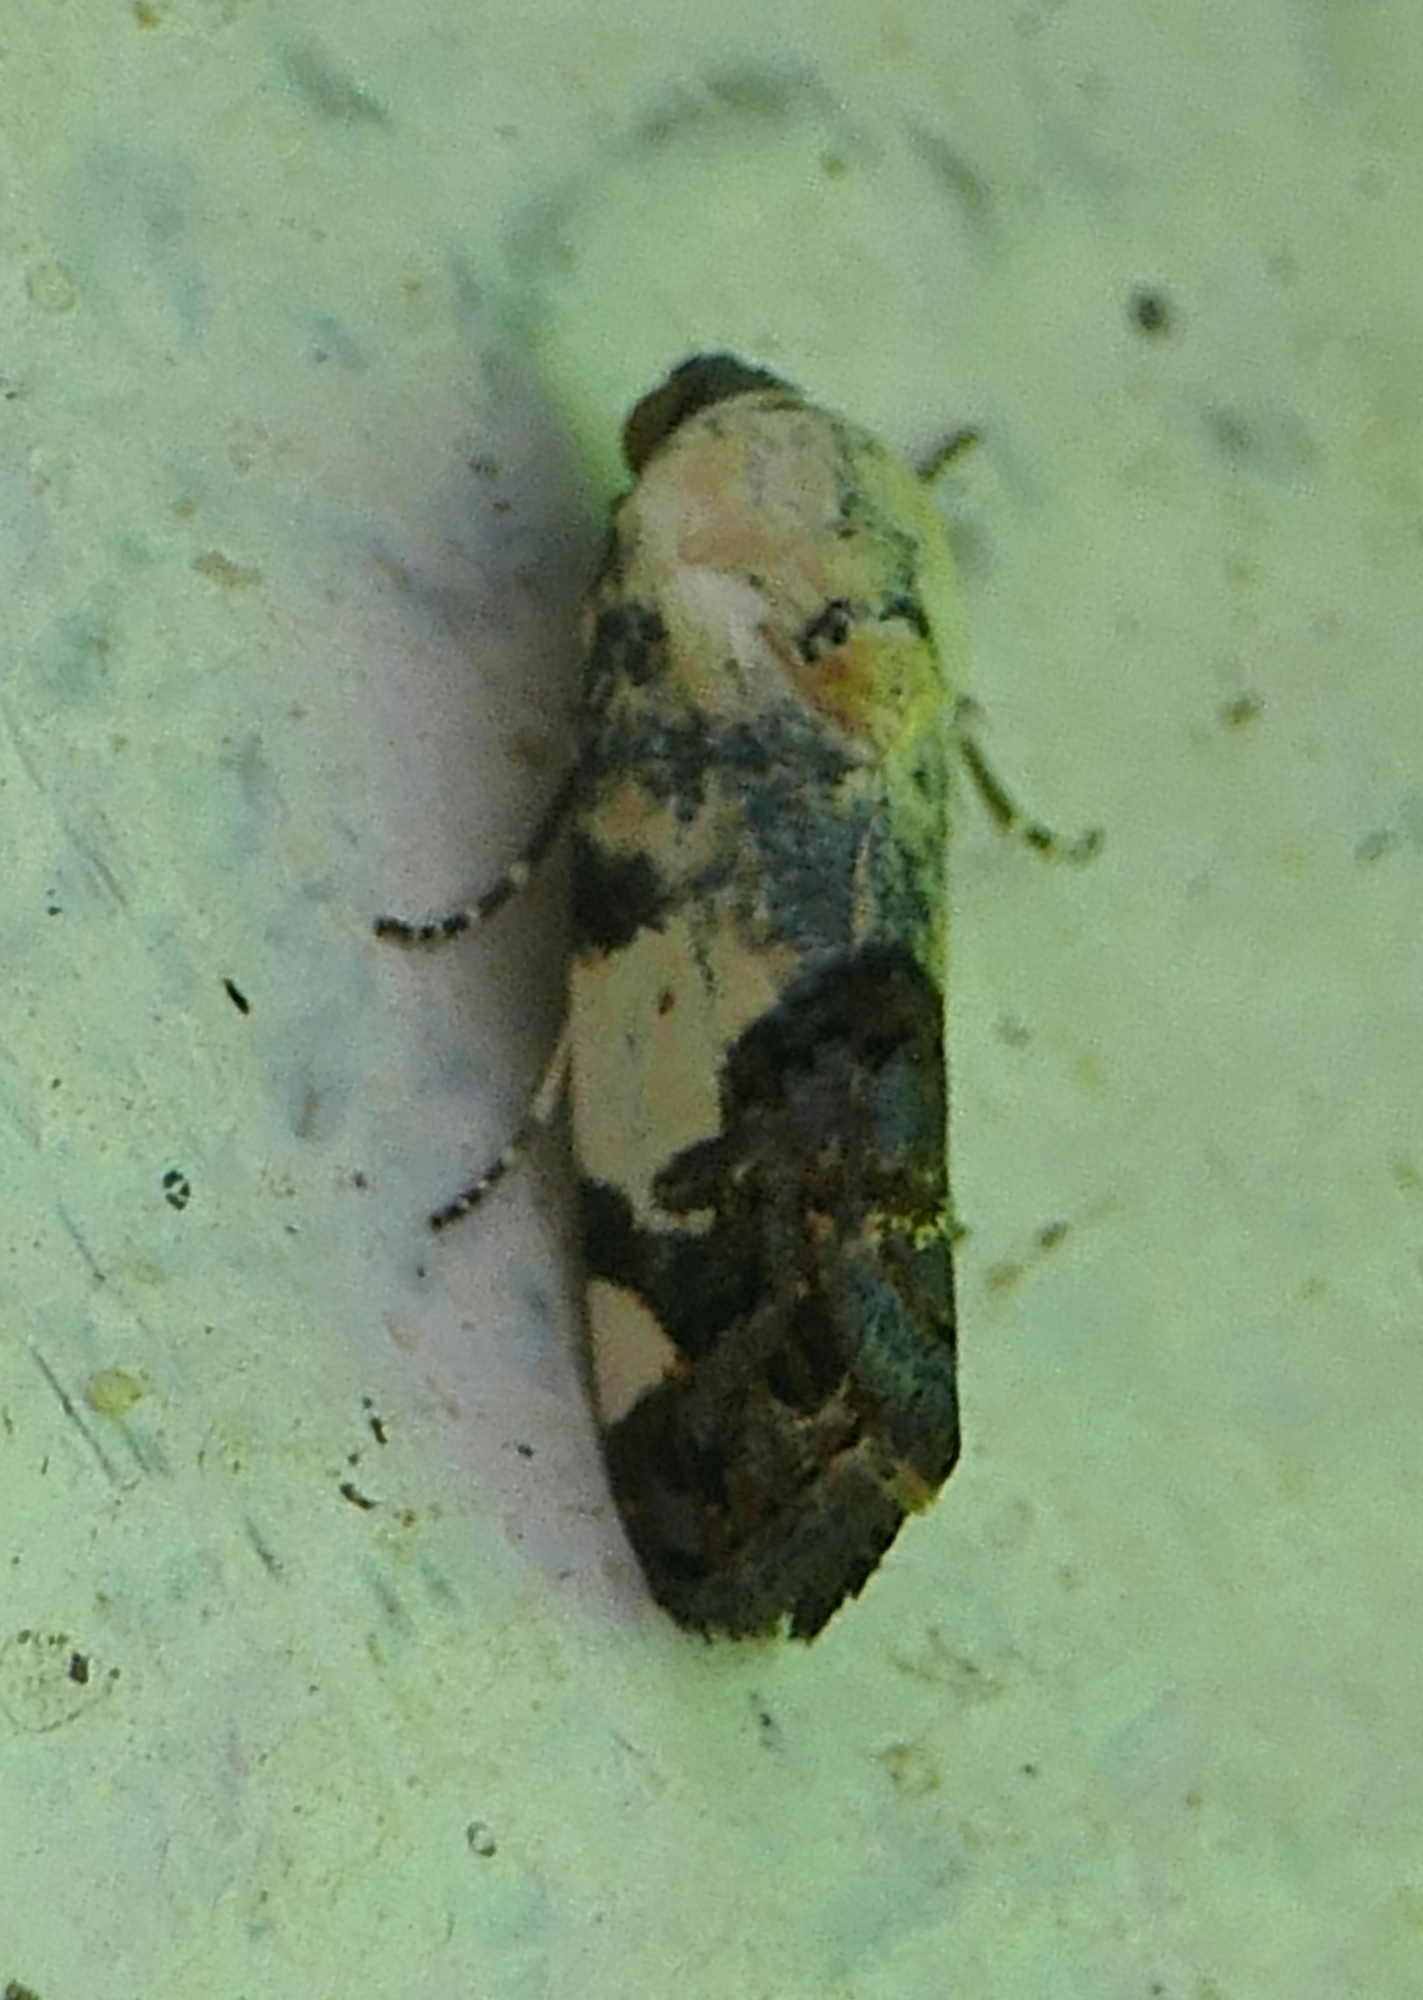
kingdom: Animalia
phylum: Arthropoda
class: Insecta
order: Lepidoptera
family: Noctuidae
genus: Acontia
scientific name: Acontia aprica
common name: Nun
